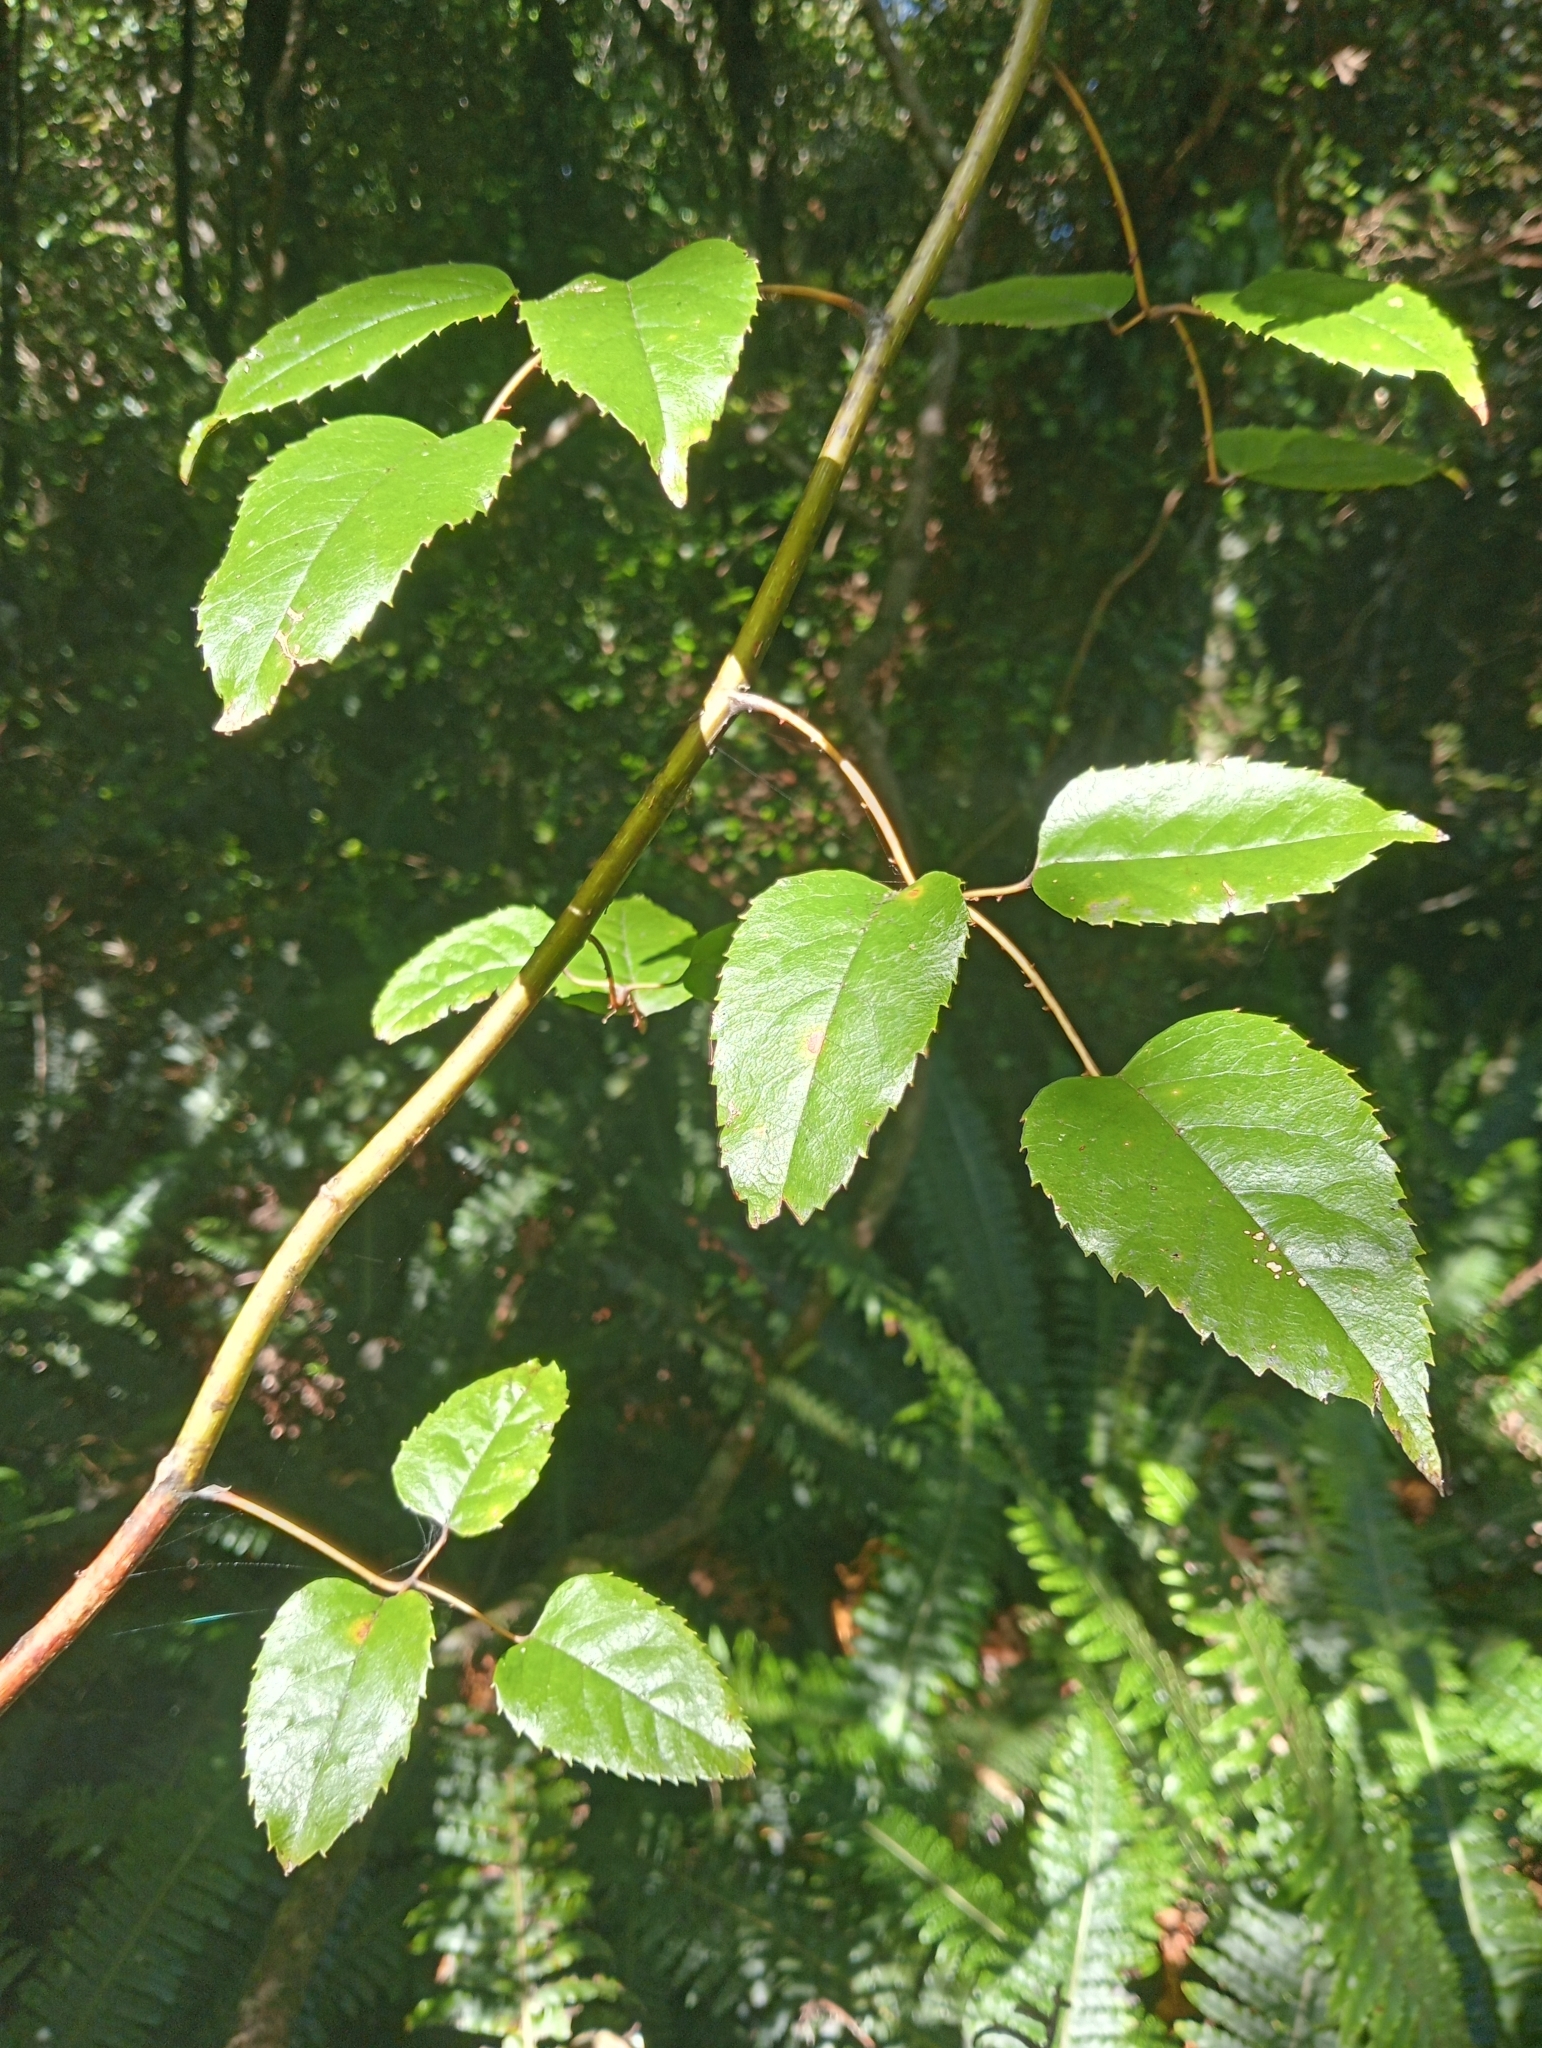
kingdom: Plantae
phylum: Tracheophyta
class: Magnoliopsida
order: Rosales
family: Rosaceae
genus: Rubus
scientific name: Rubus cissoides
